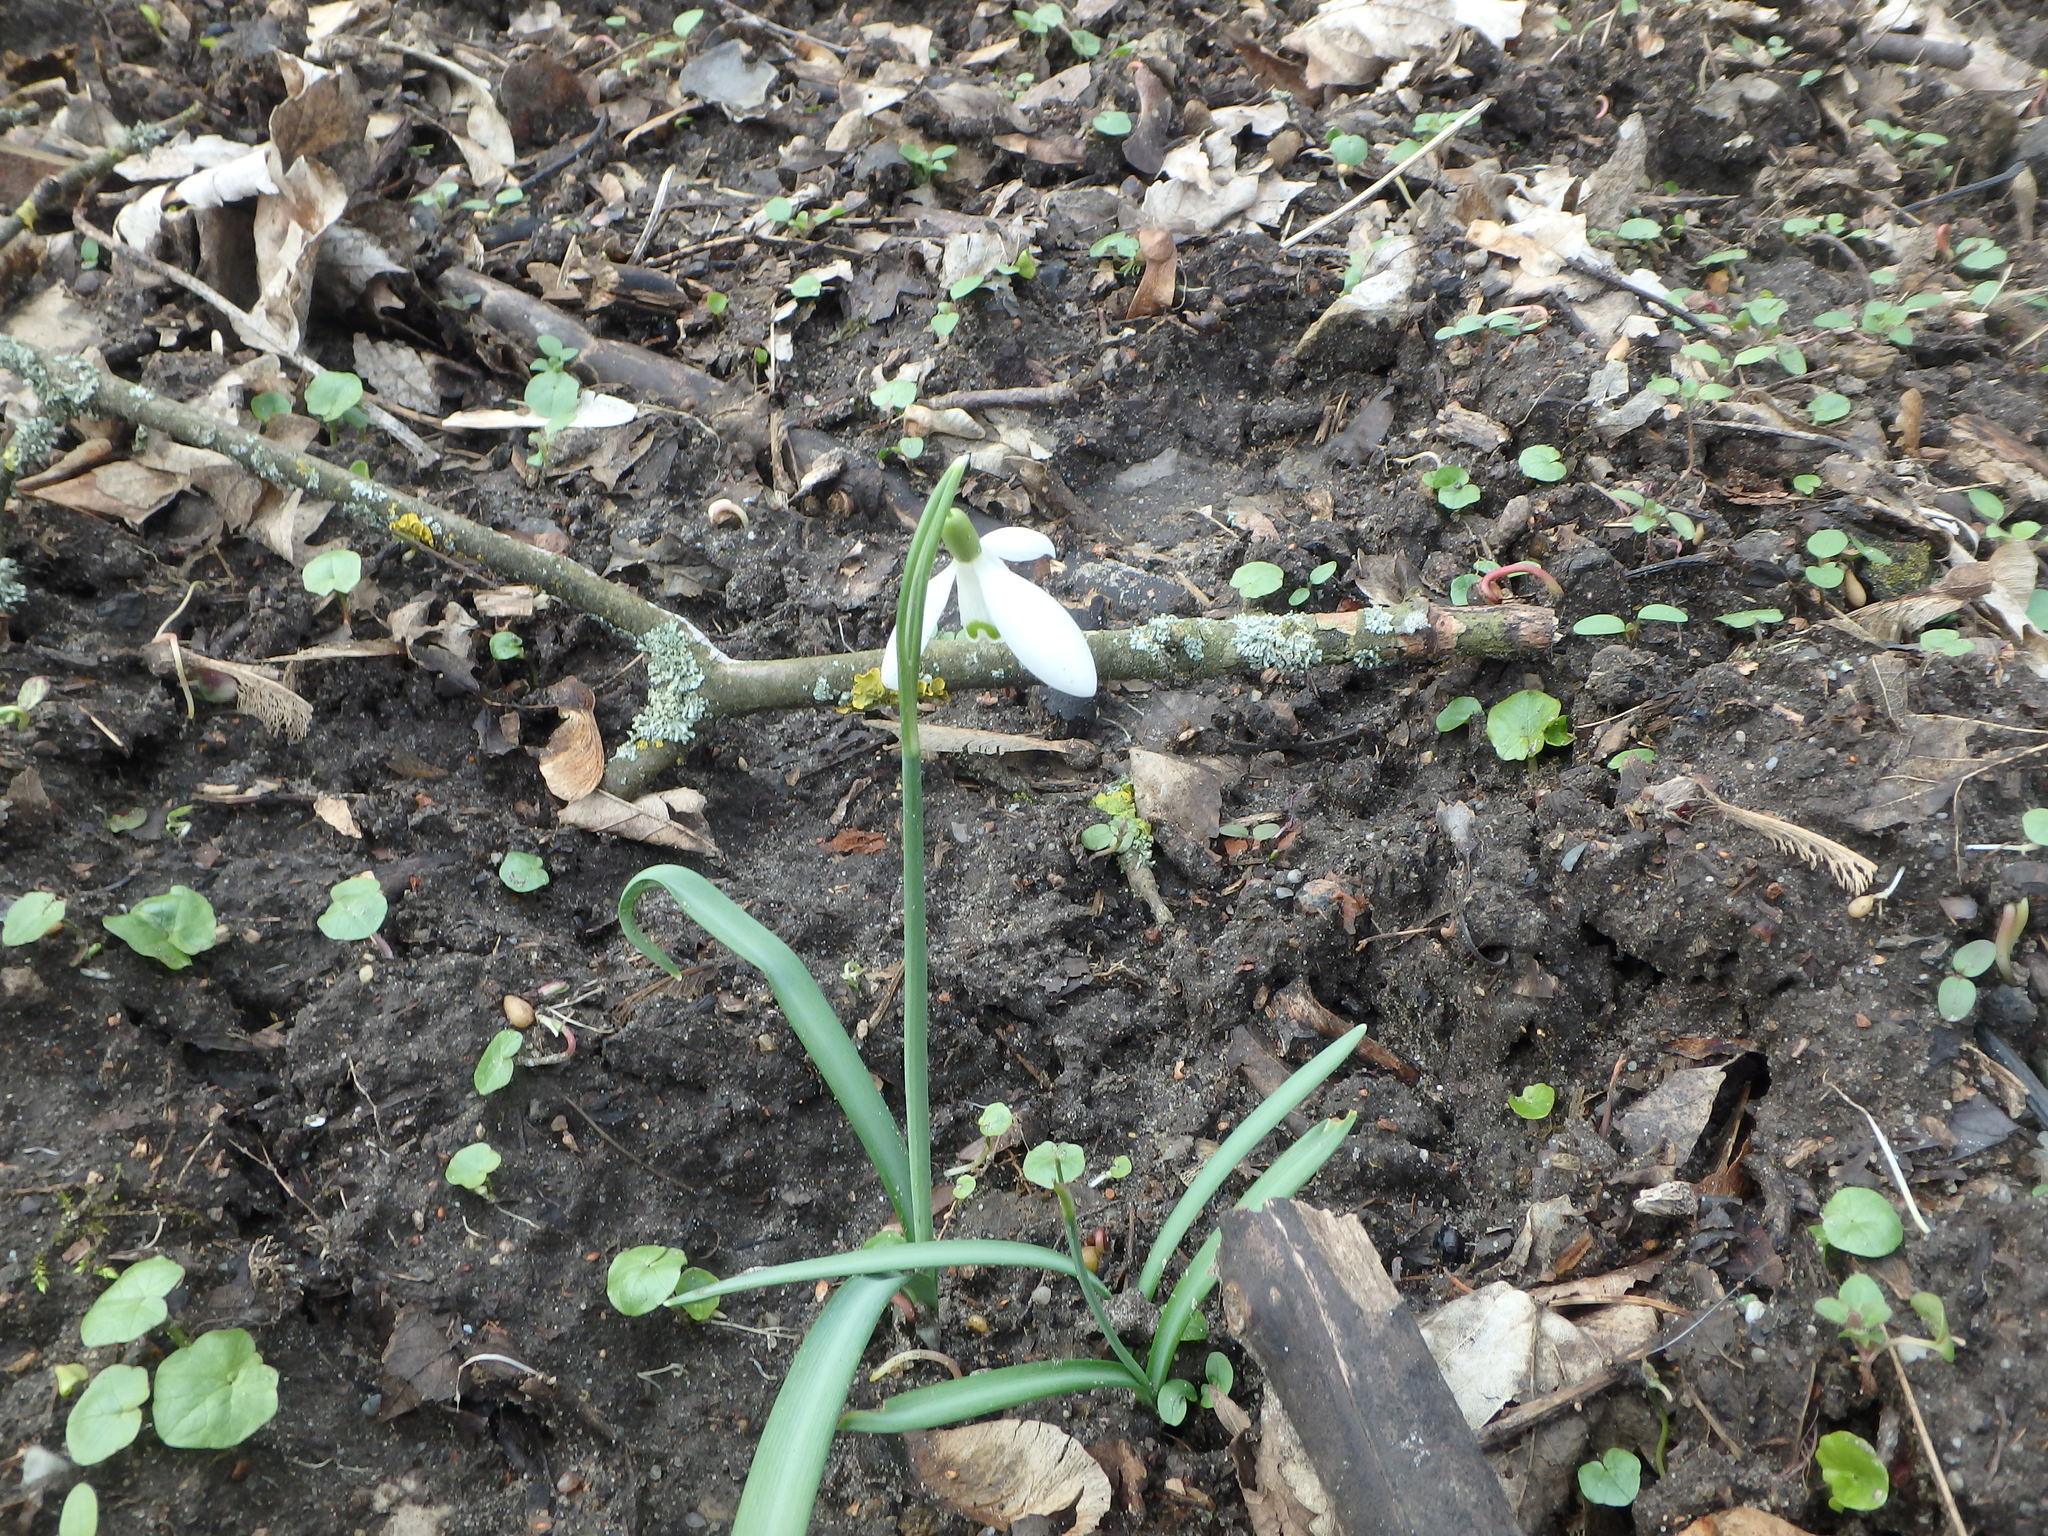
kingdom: Plantae
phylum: Tracheophyta
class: Liliopsida
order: Asparagales
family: Amaryllidaceae
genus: Galanthus
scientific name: Galanthus nivalis
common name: Snowdrop
